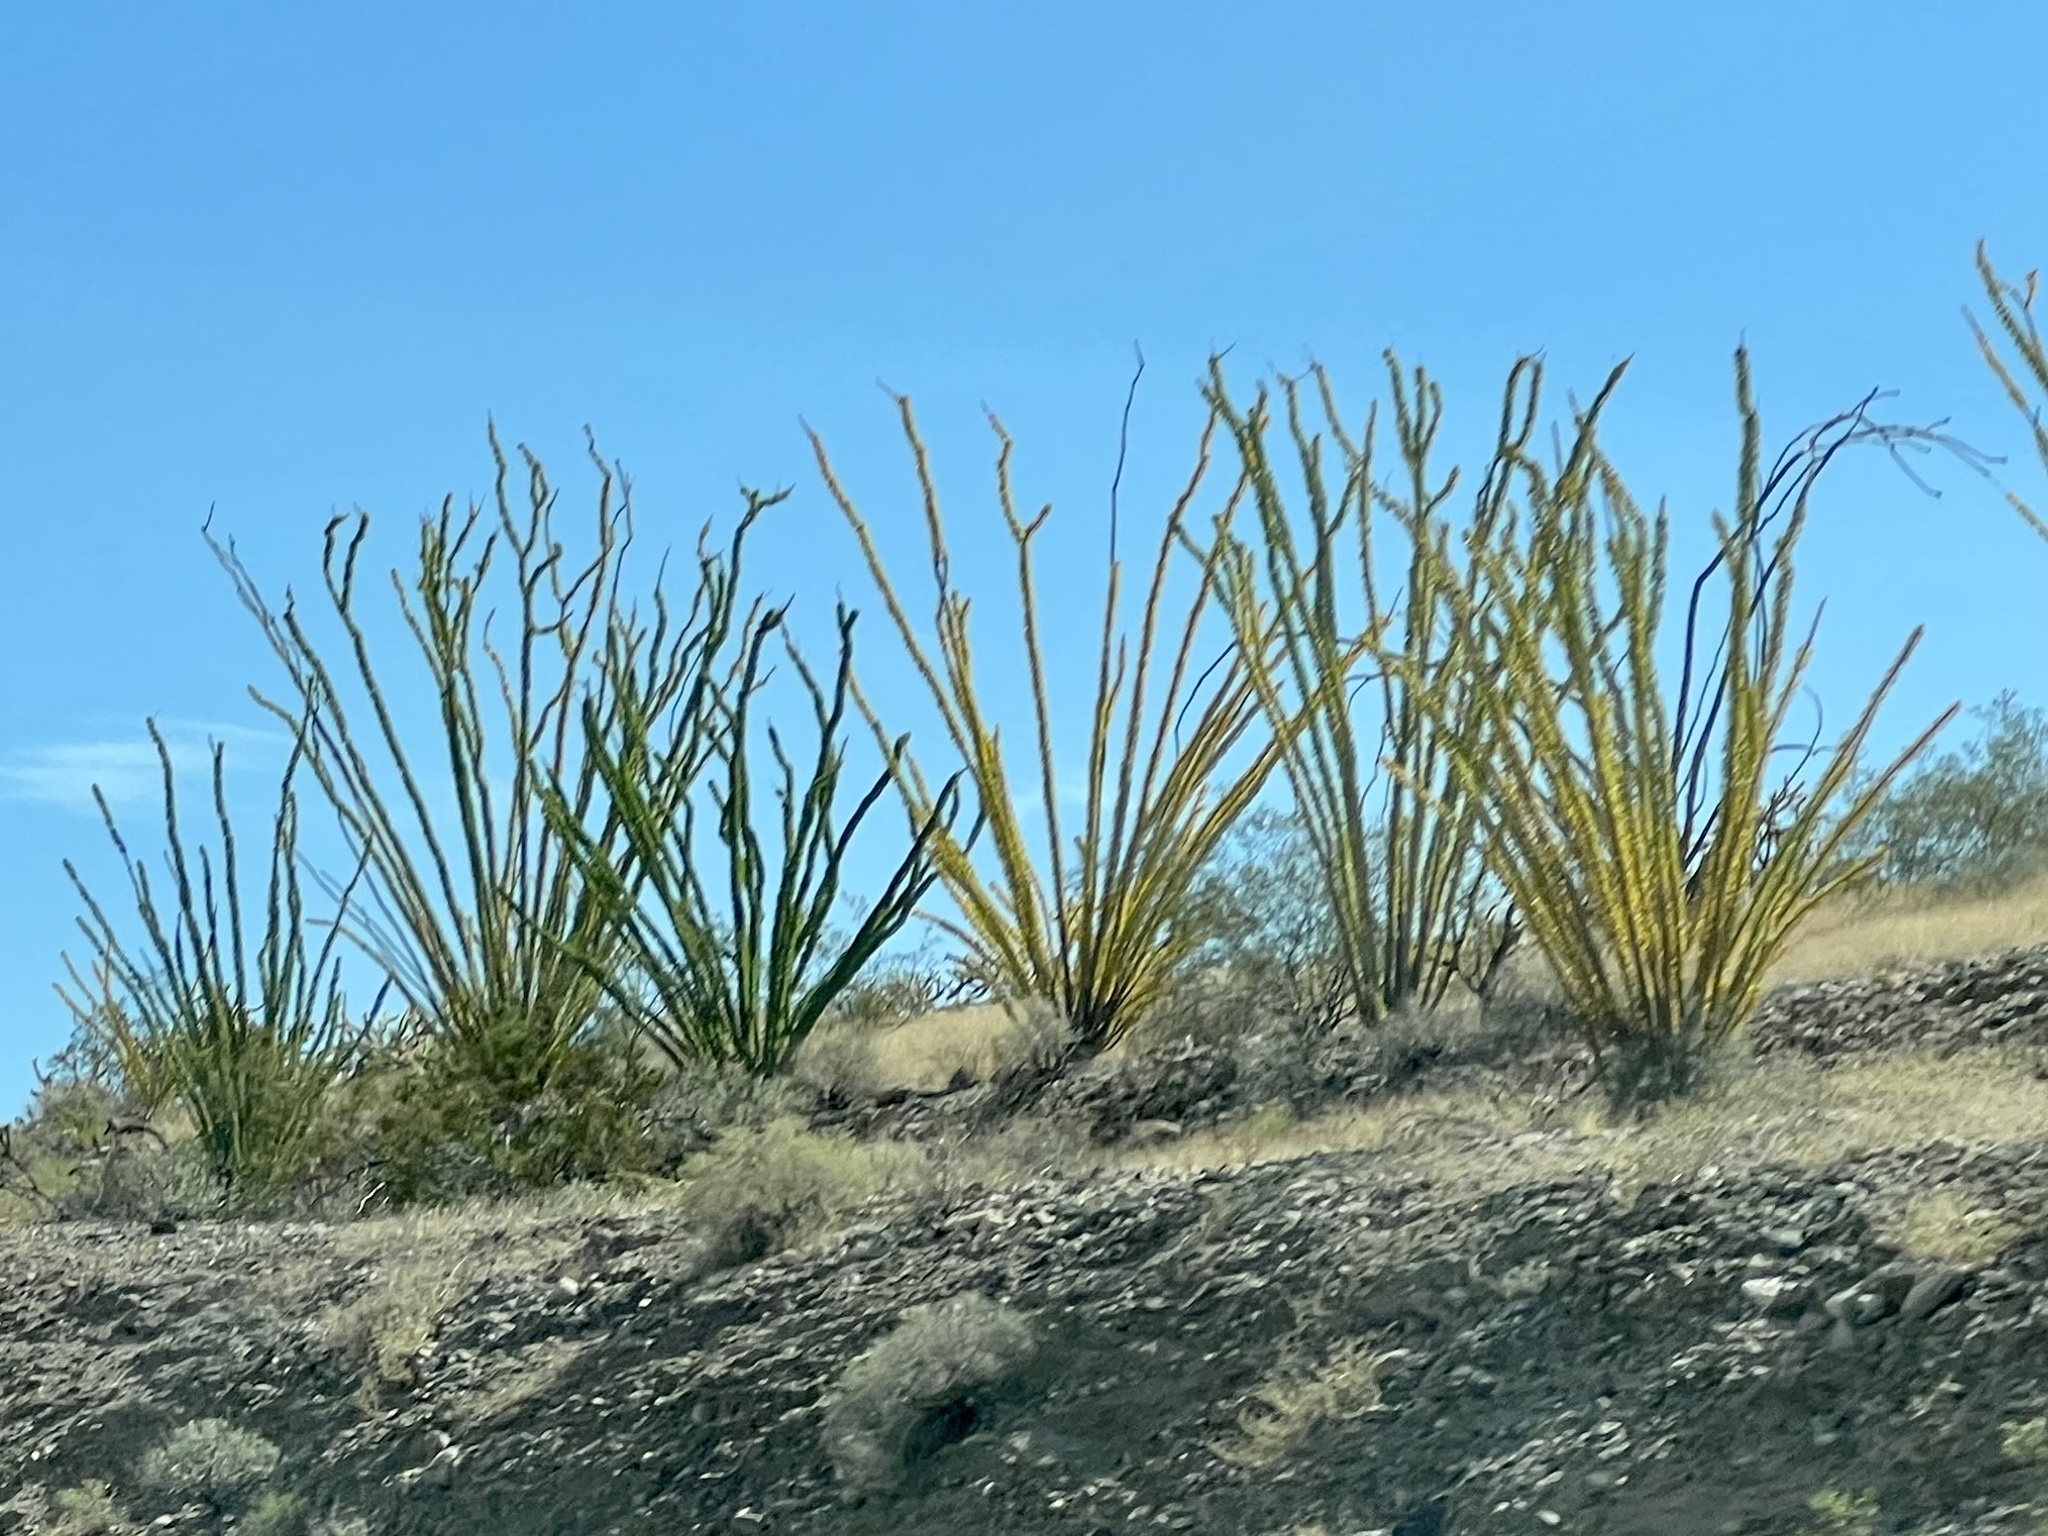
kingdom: Plantae
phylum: Tracheophyta
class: Magnoliopsida
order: Ericales
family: Fouquieriaceae
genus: Fouquieria
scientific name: Fouquieria splendens
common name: Vine-cactus
